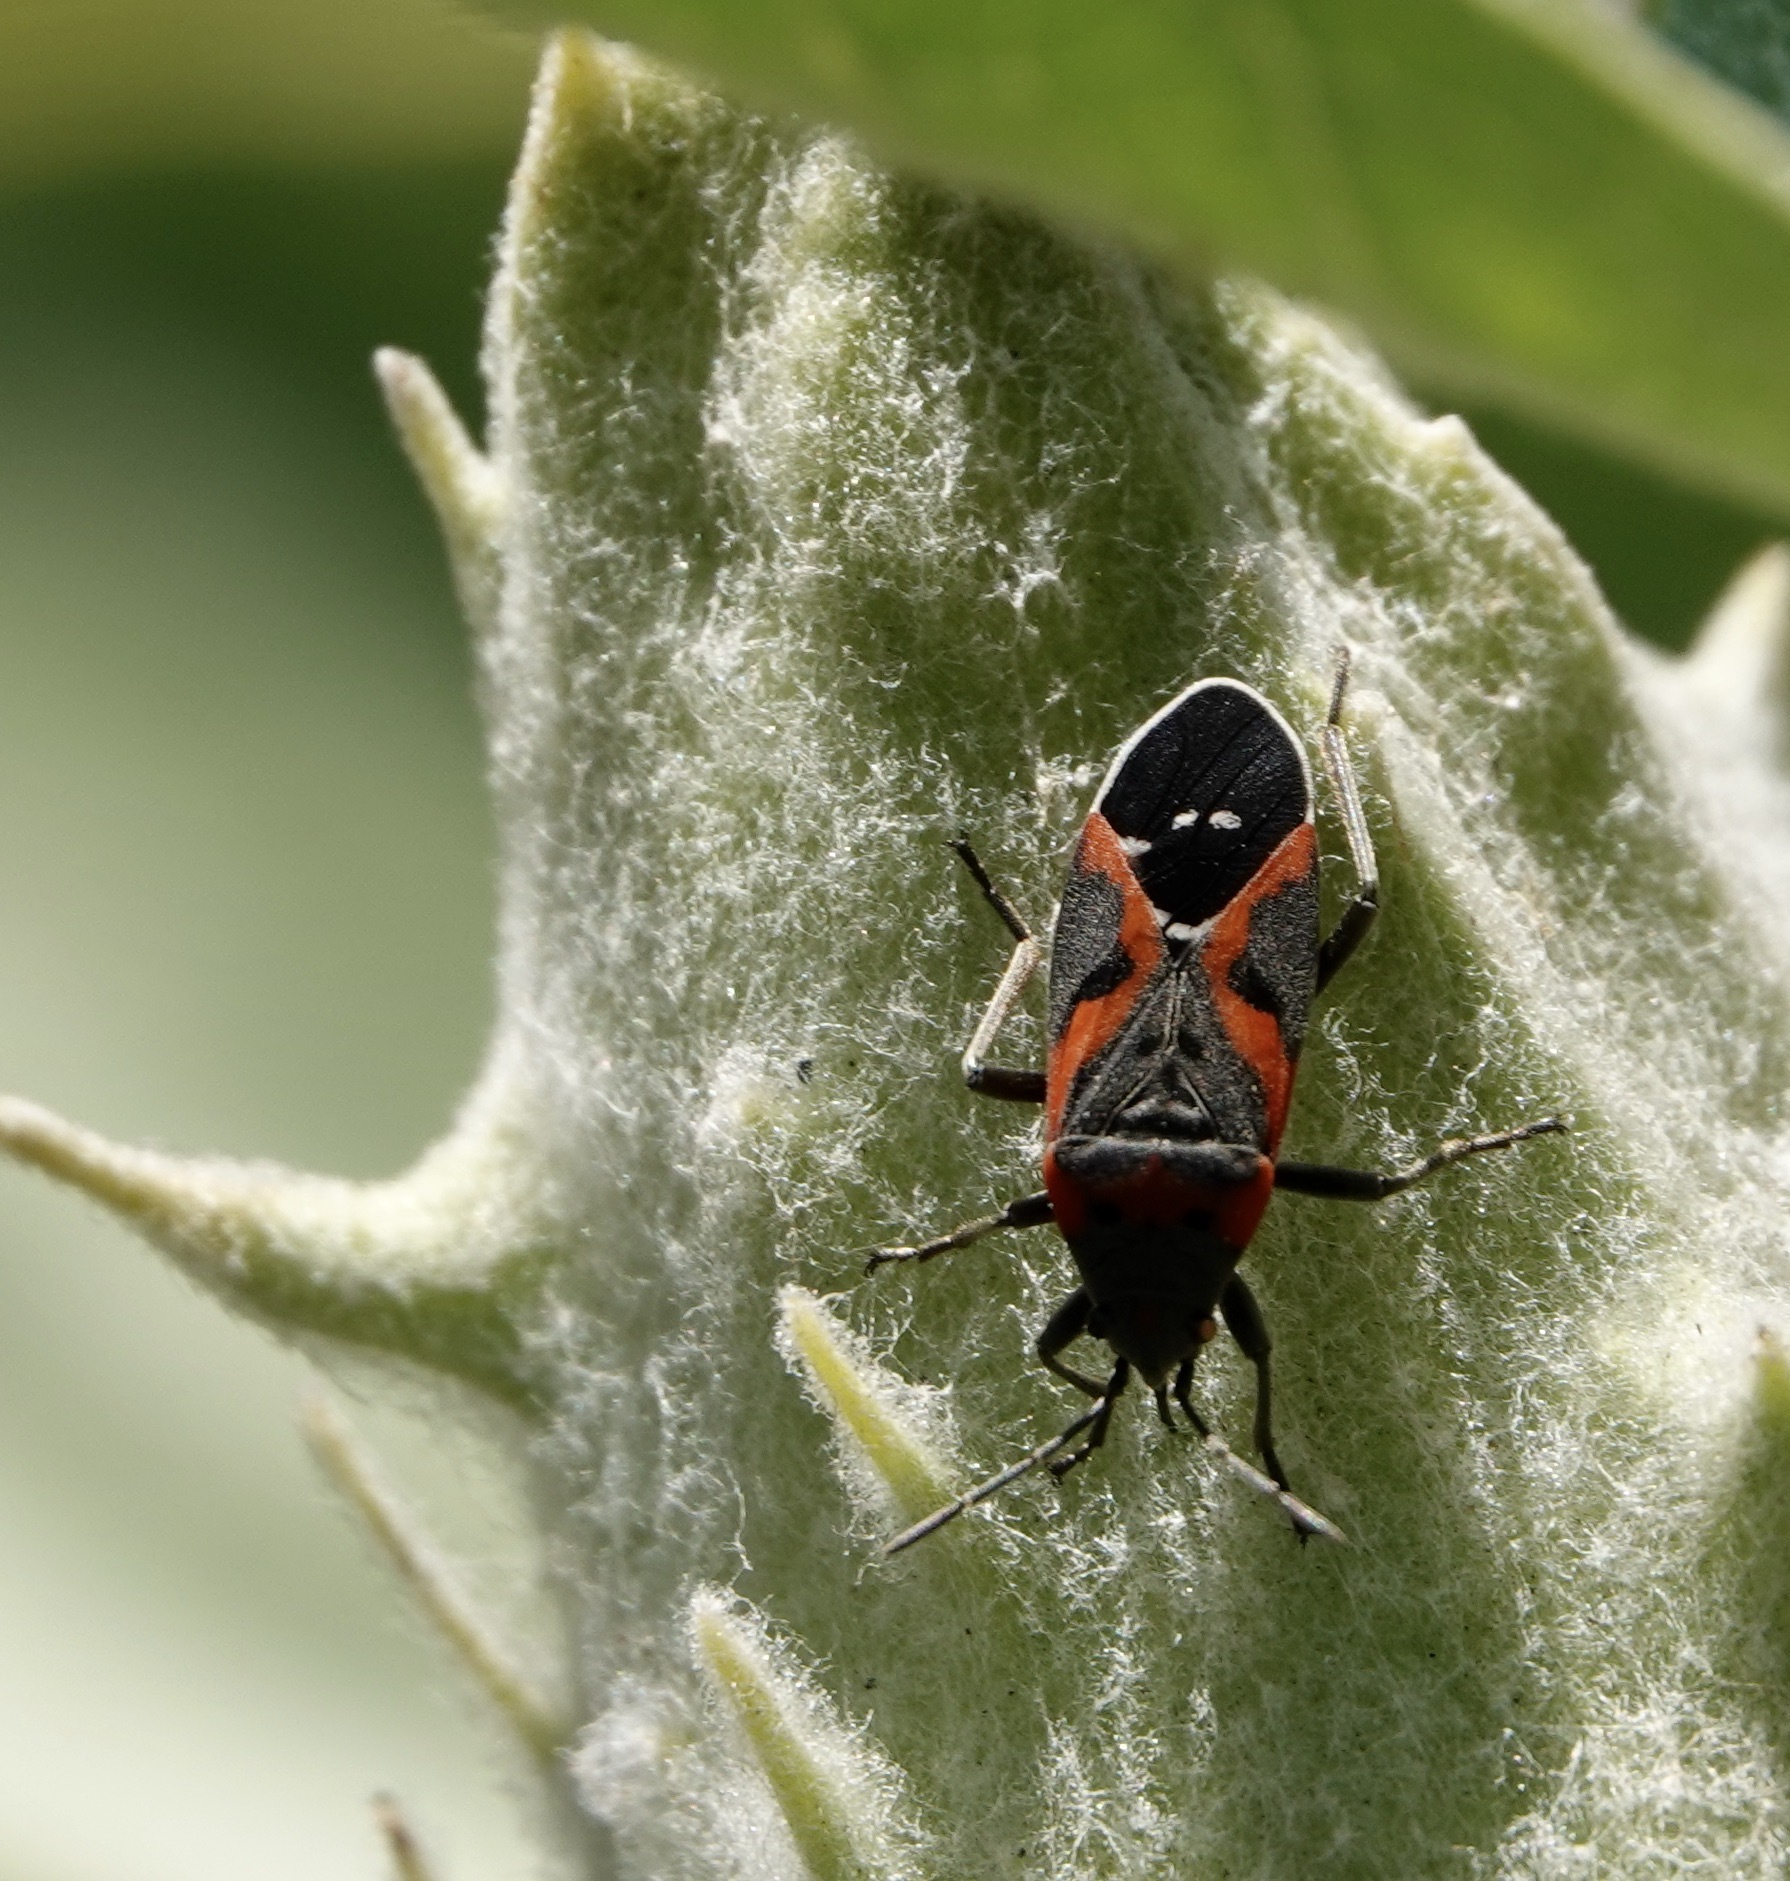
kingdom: Animalia
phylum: Arthropoda
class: Insecta
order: Hemiptera
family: Lygaeidae
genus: Lygaeus
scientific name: Lygaeus kalmii
